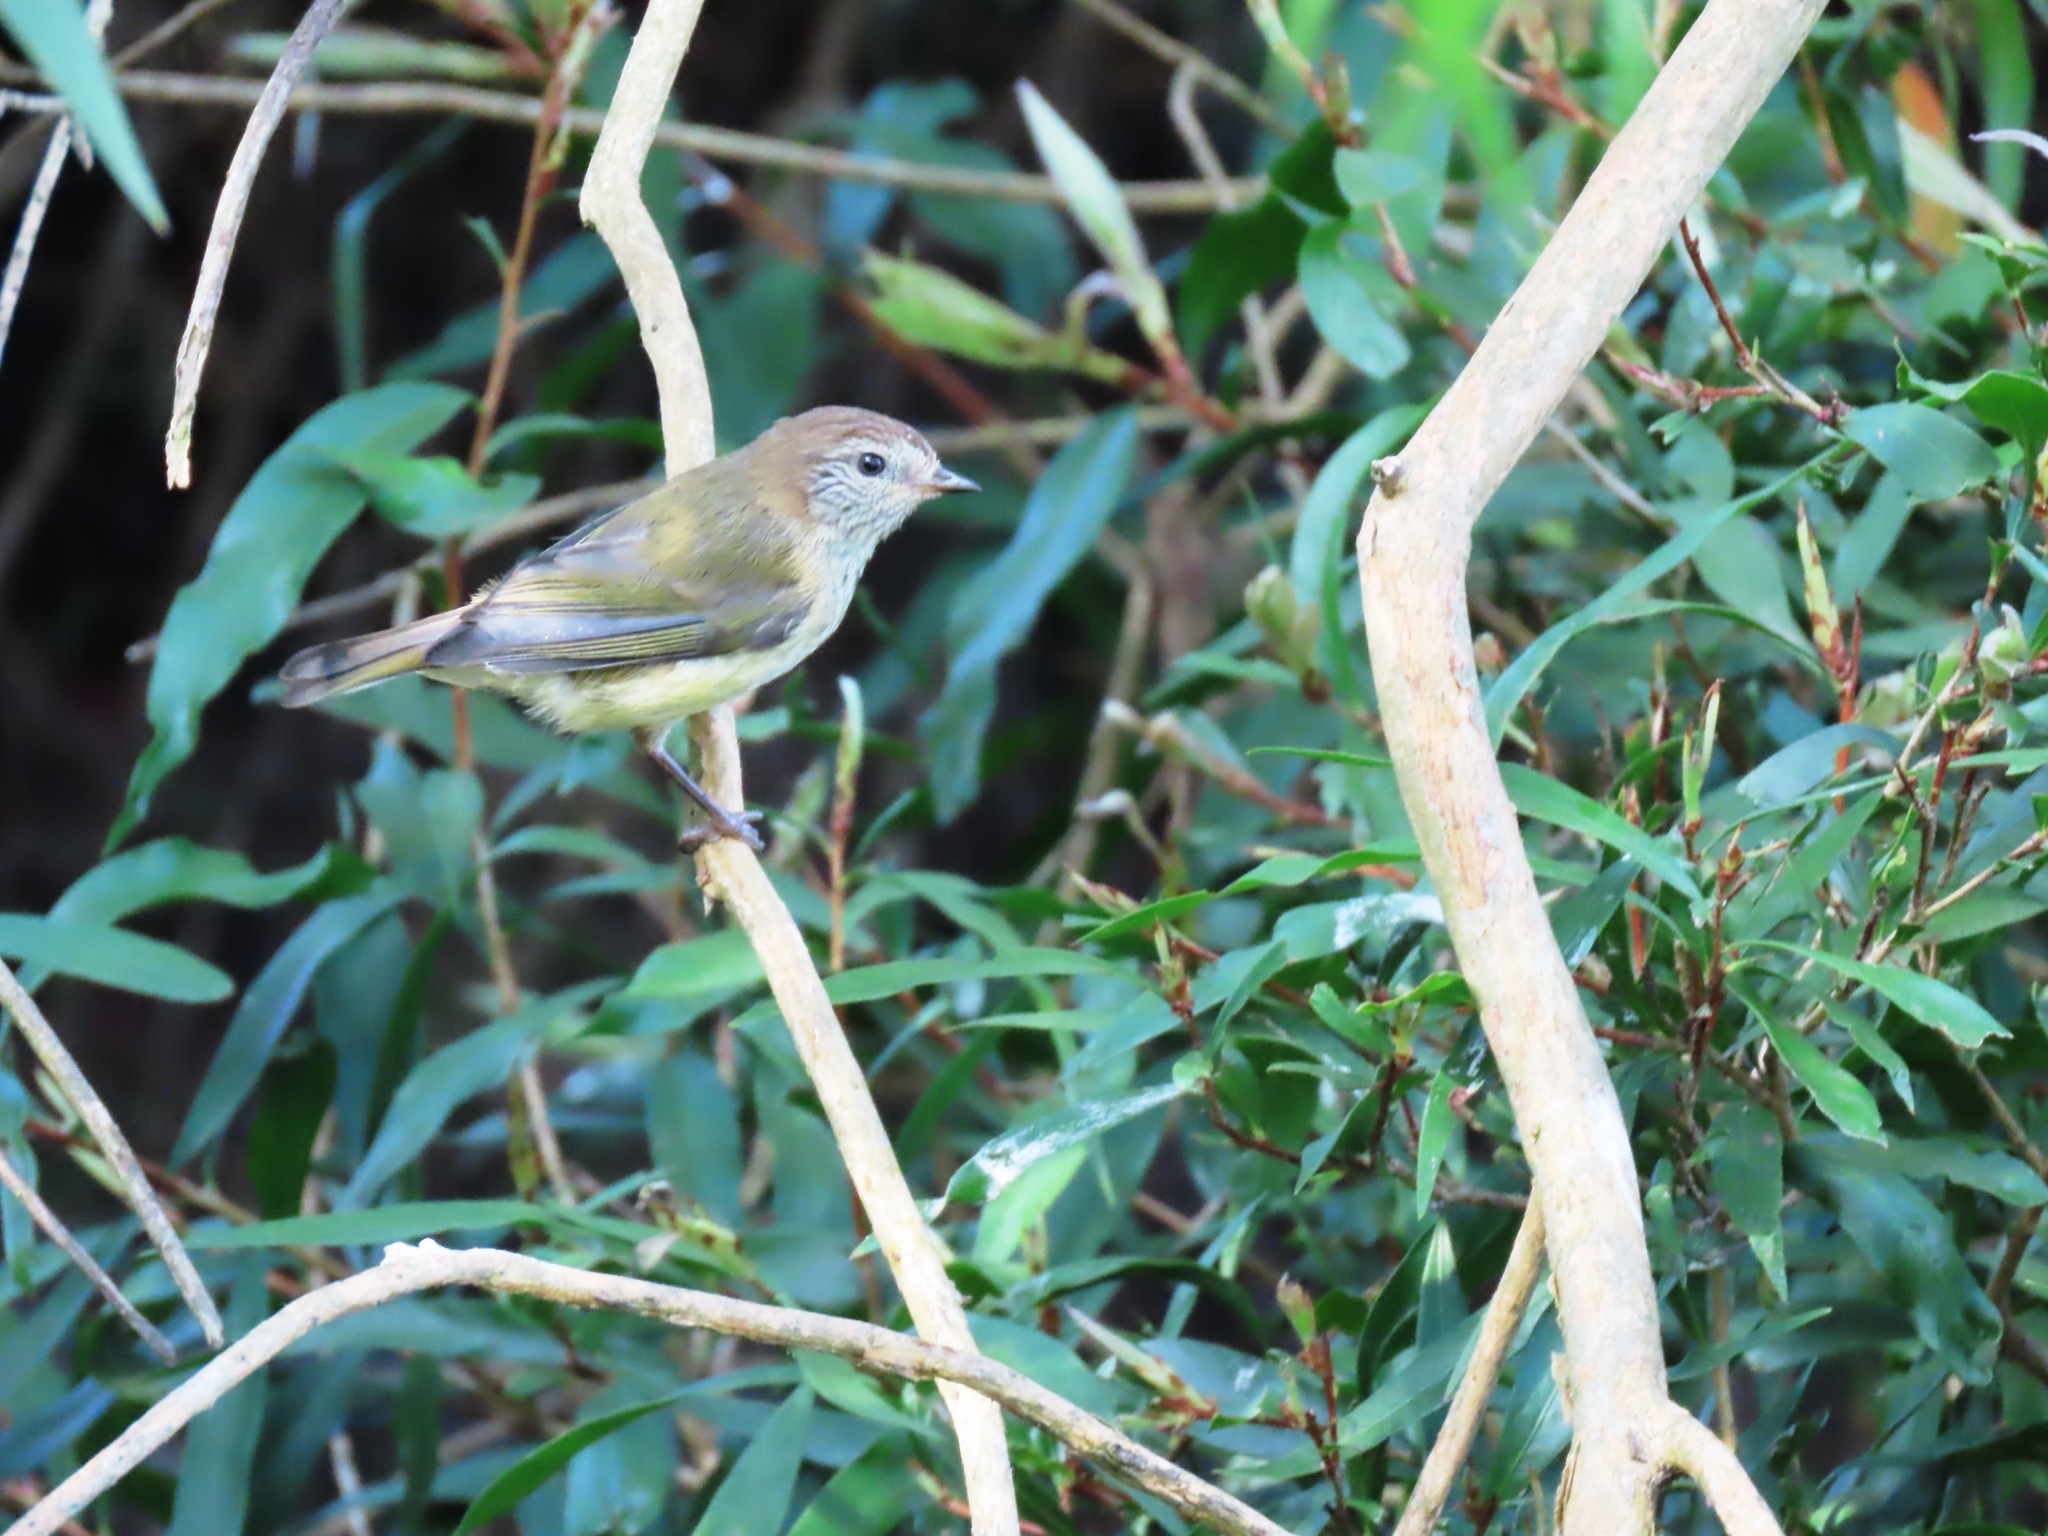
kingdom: Animalia
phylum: Chordata
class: Aves
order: Passeriformes
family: Acanthizidae
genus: Acanthiza
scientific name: Acanthiza lineata
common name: Striated thornbill
